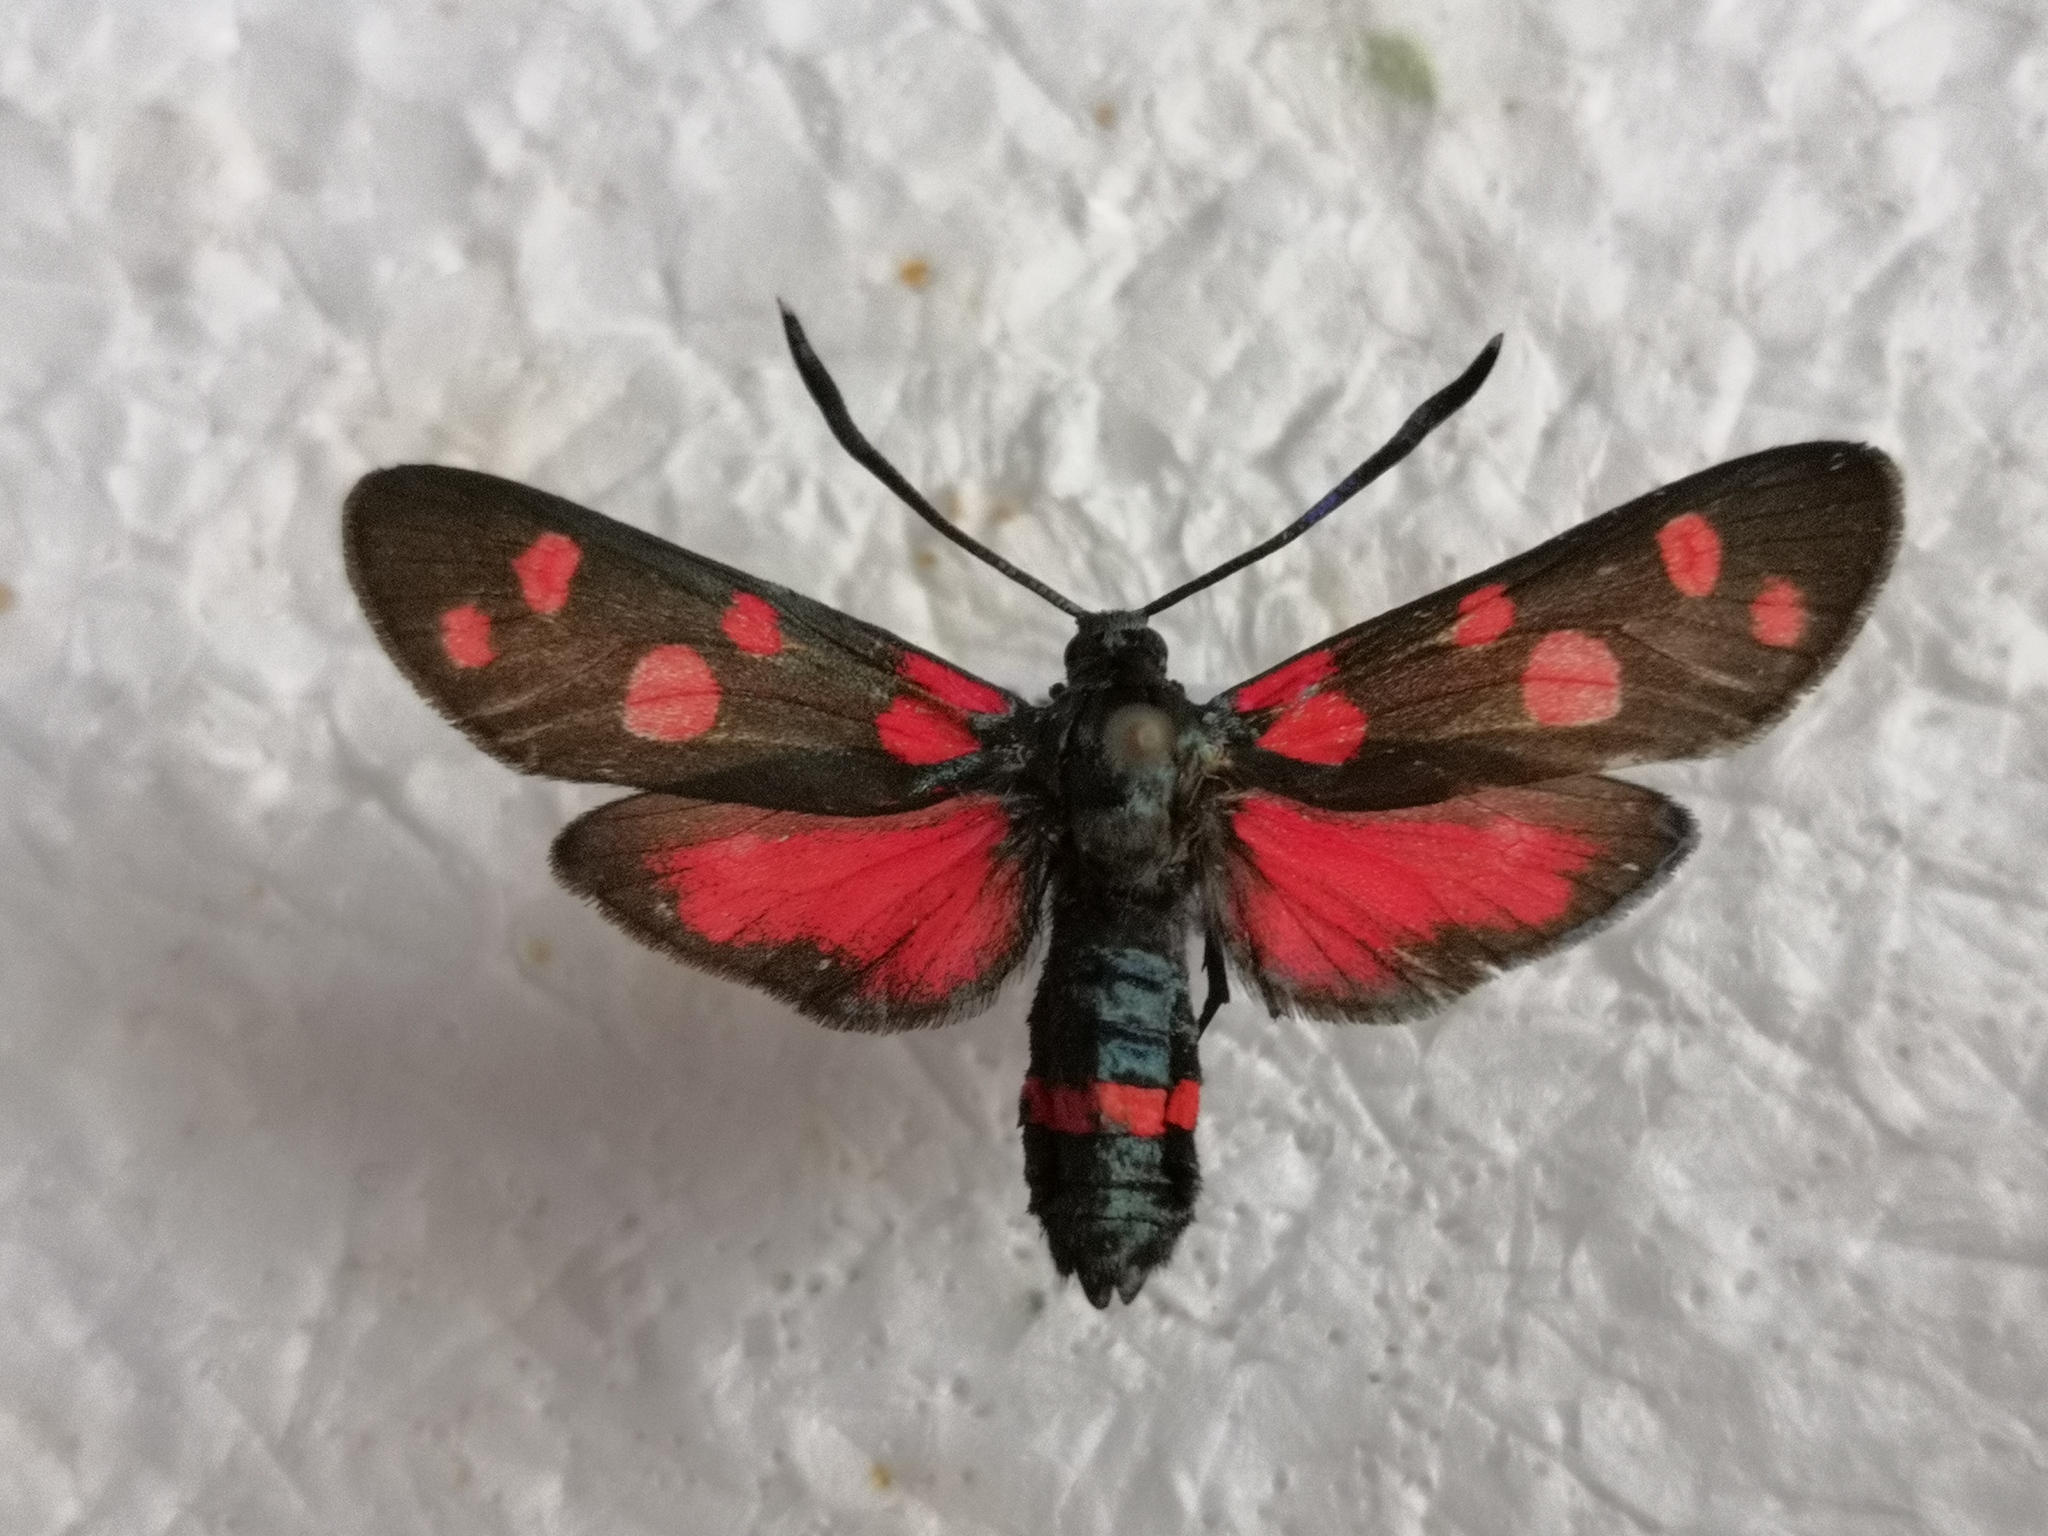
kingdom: Animalia
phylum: Arthropoda
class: Insecta
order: Lepidoptera
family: Zygaenidae
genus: Zygaena
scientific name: Zygaena ephialtes
